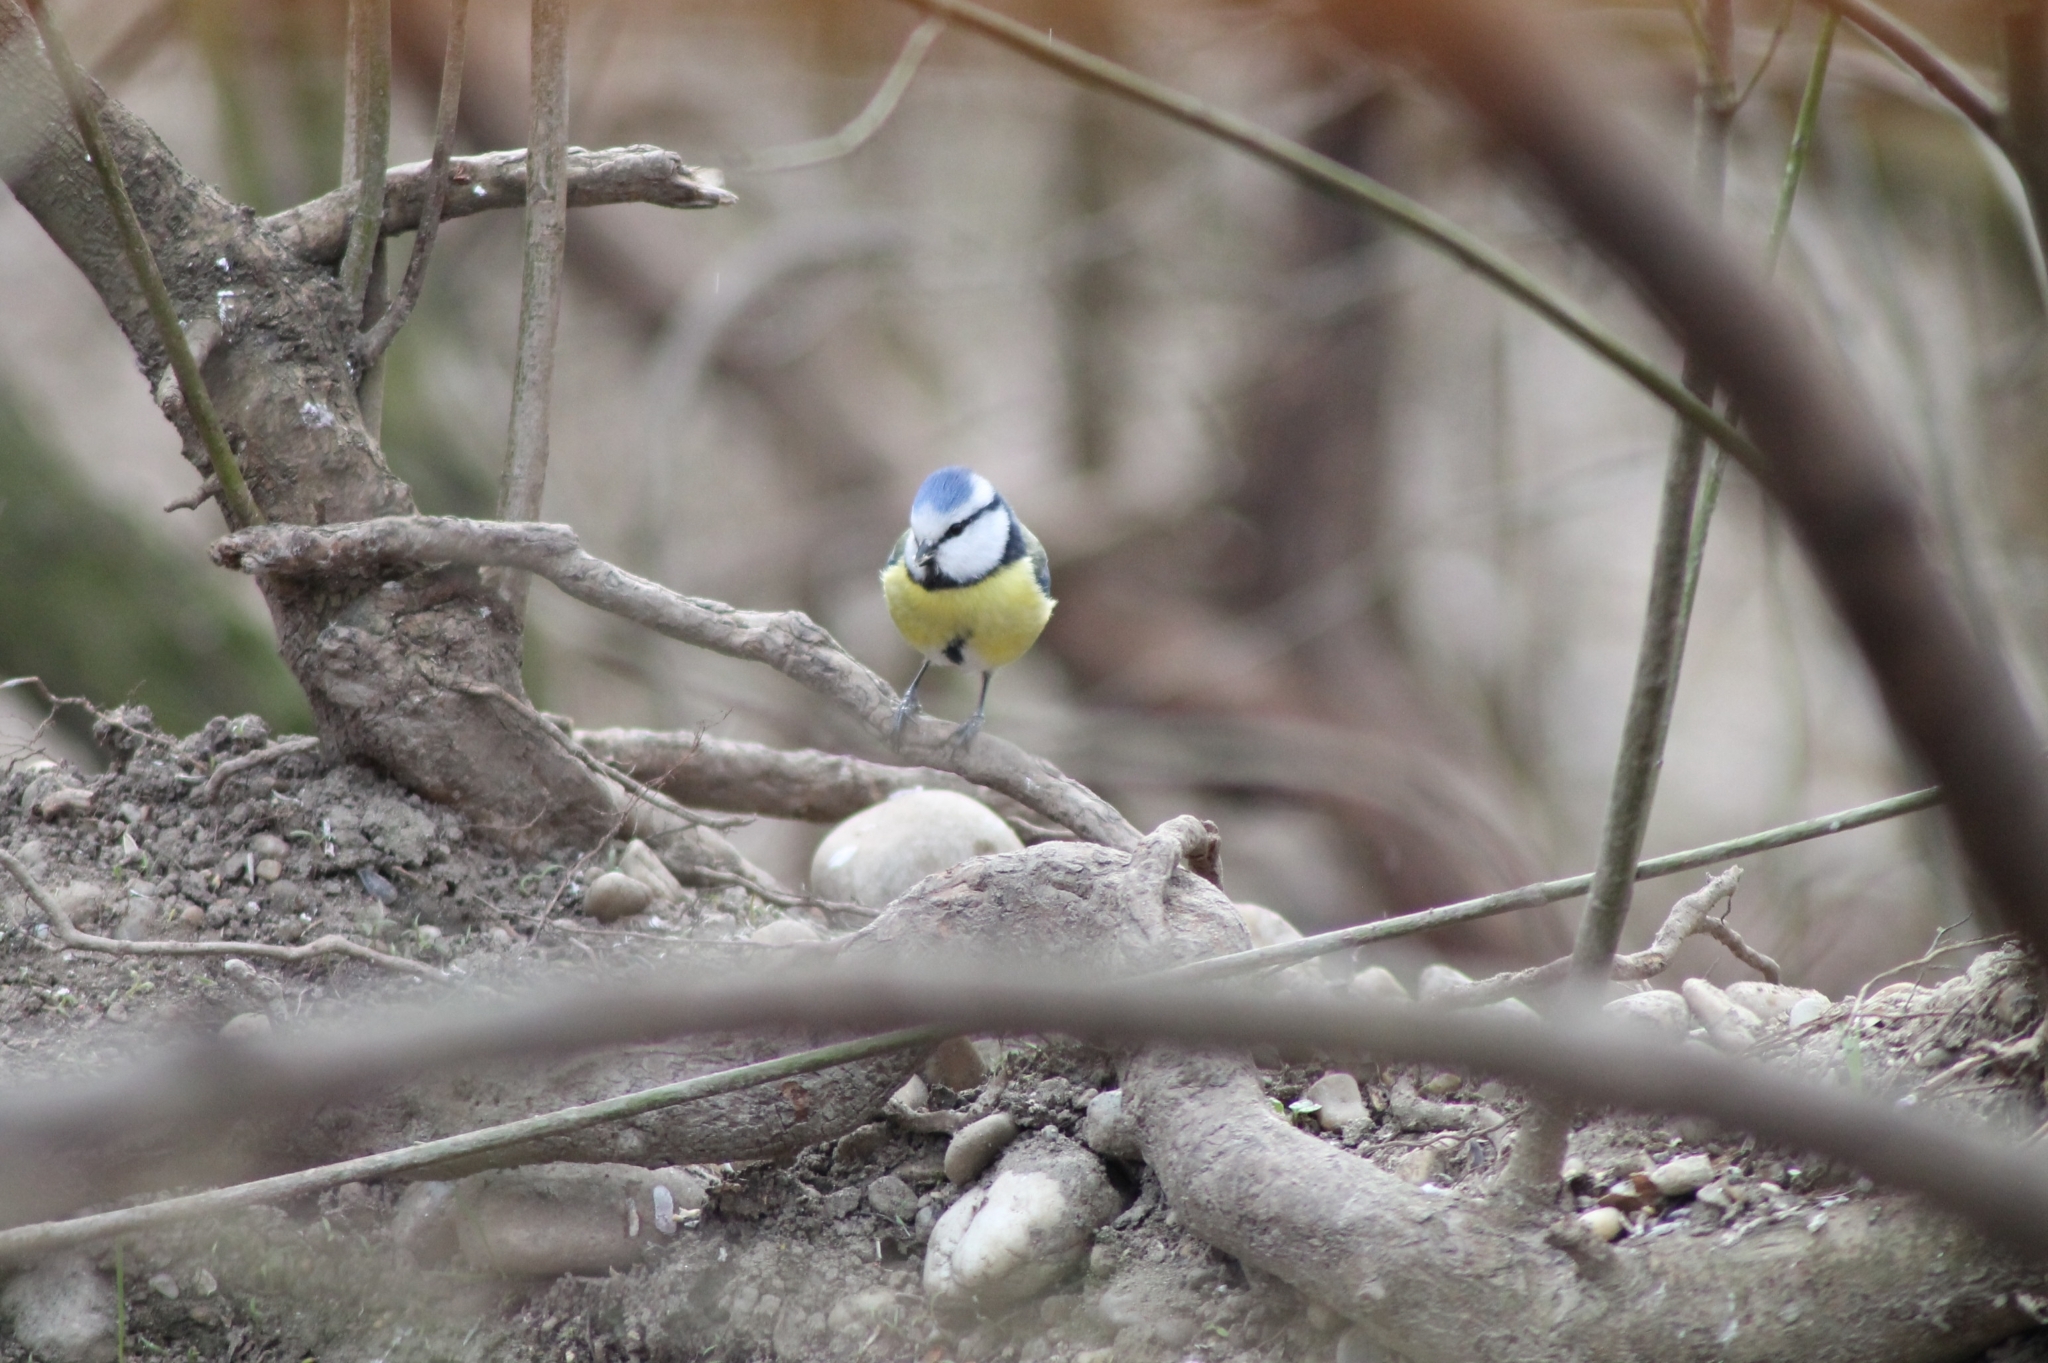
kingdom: Animalia
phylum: Chordata
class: Aves
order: Passeriformes
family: Paridae
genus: Cyanistes
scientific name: Cyanistes caeruleus
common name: Eurasian blue tit
